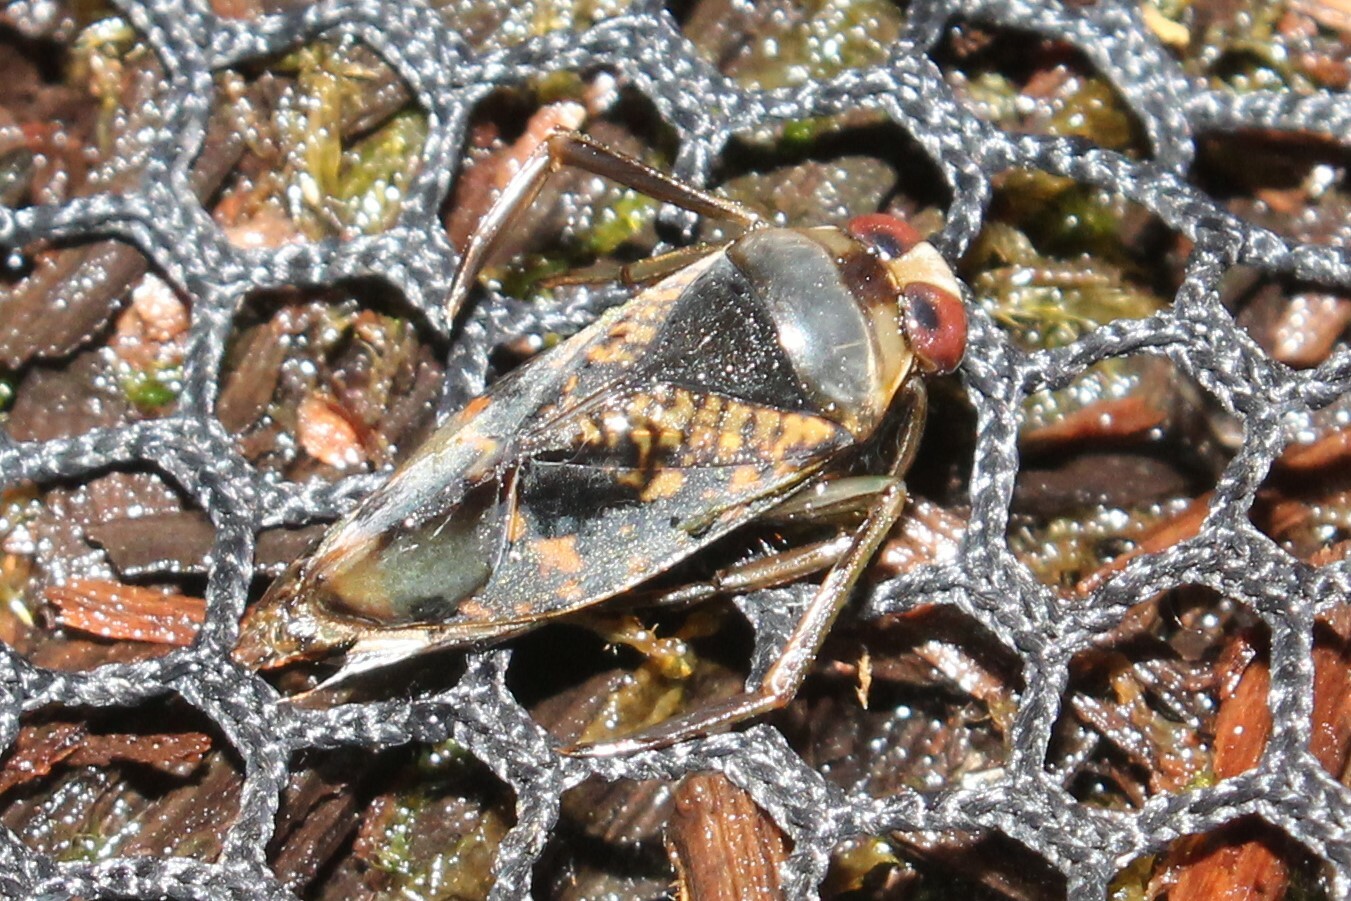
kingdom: Animalia
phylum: Arthropoda
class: Insecta
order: Hemiptera
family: Notonectidae
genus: Notonecta
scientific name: Notonecta irrorata
